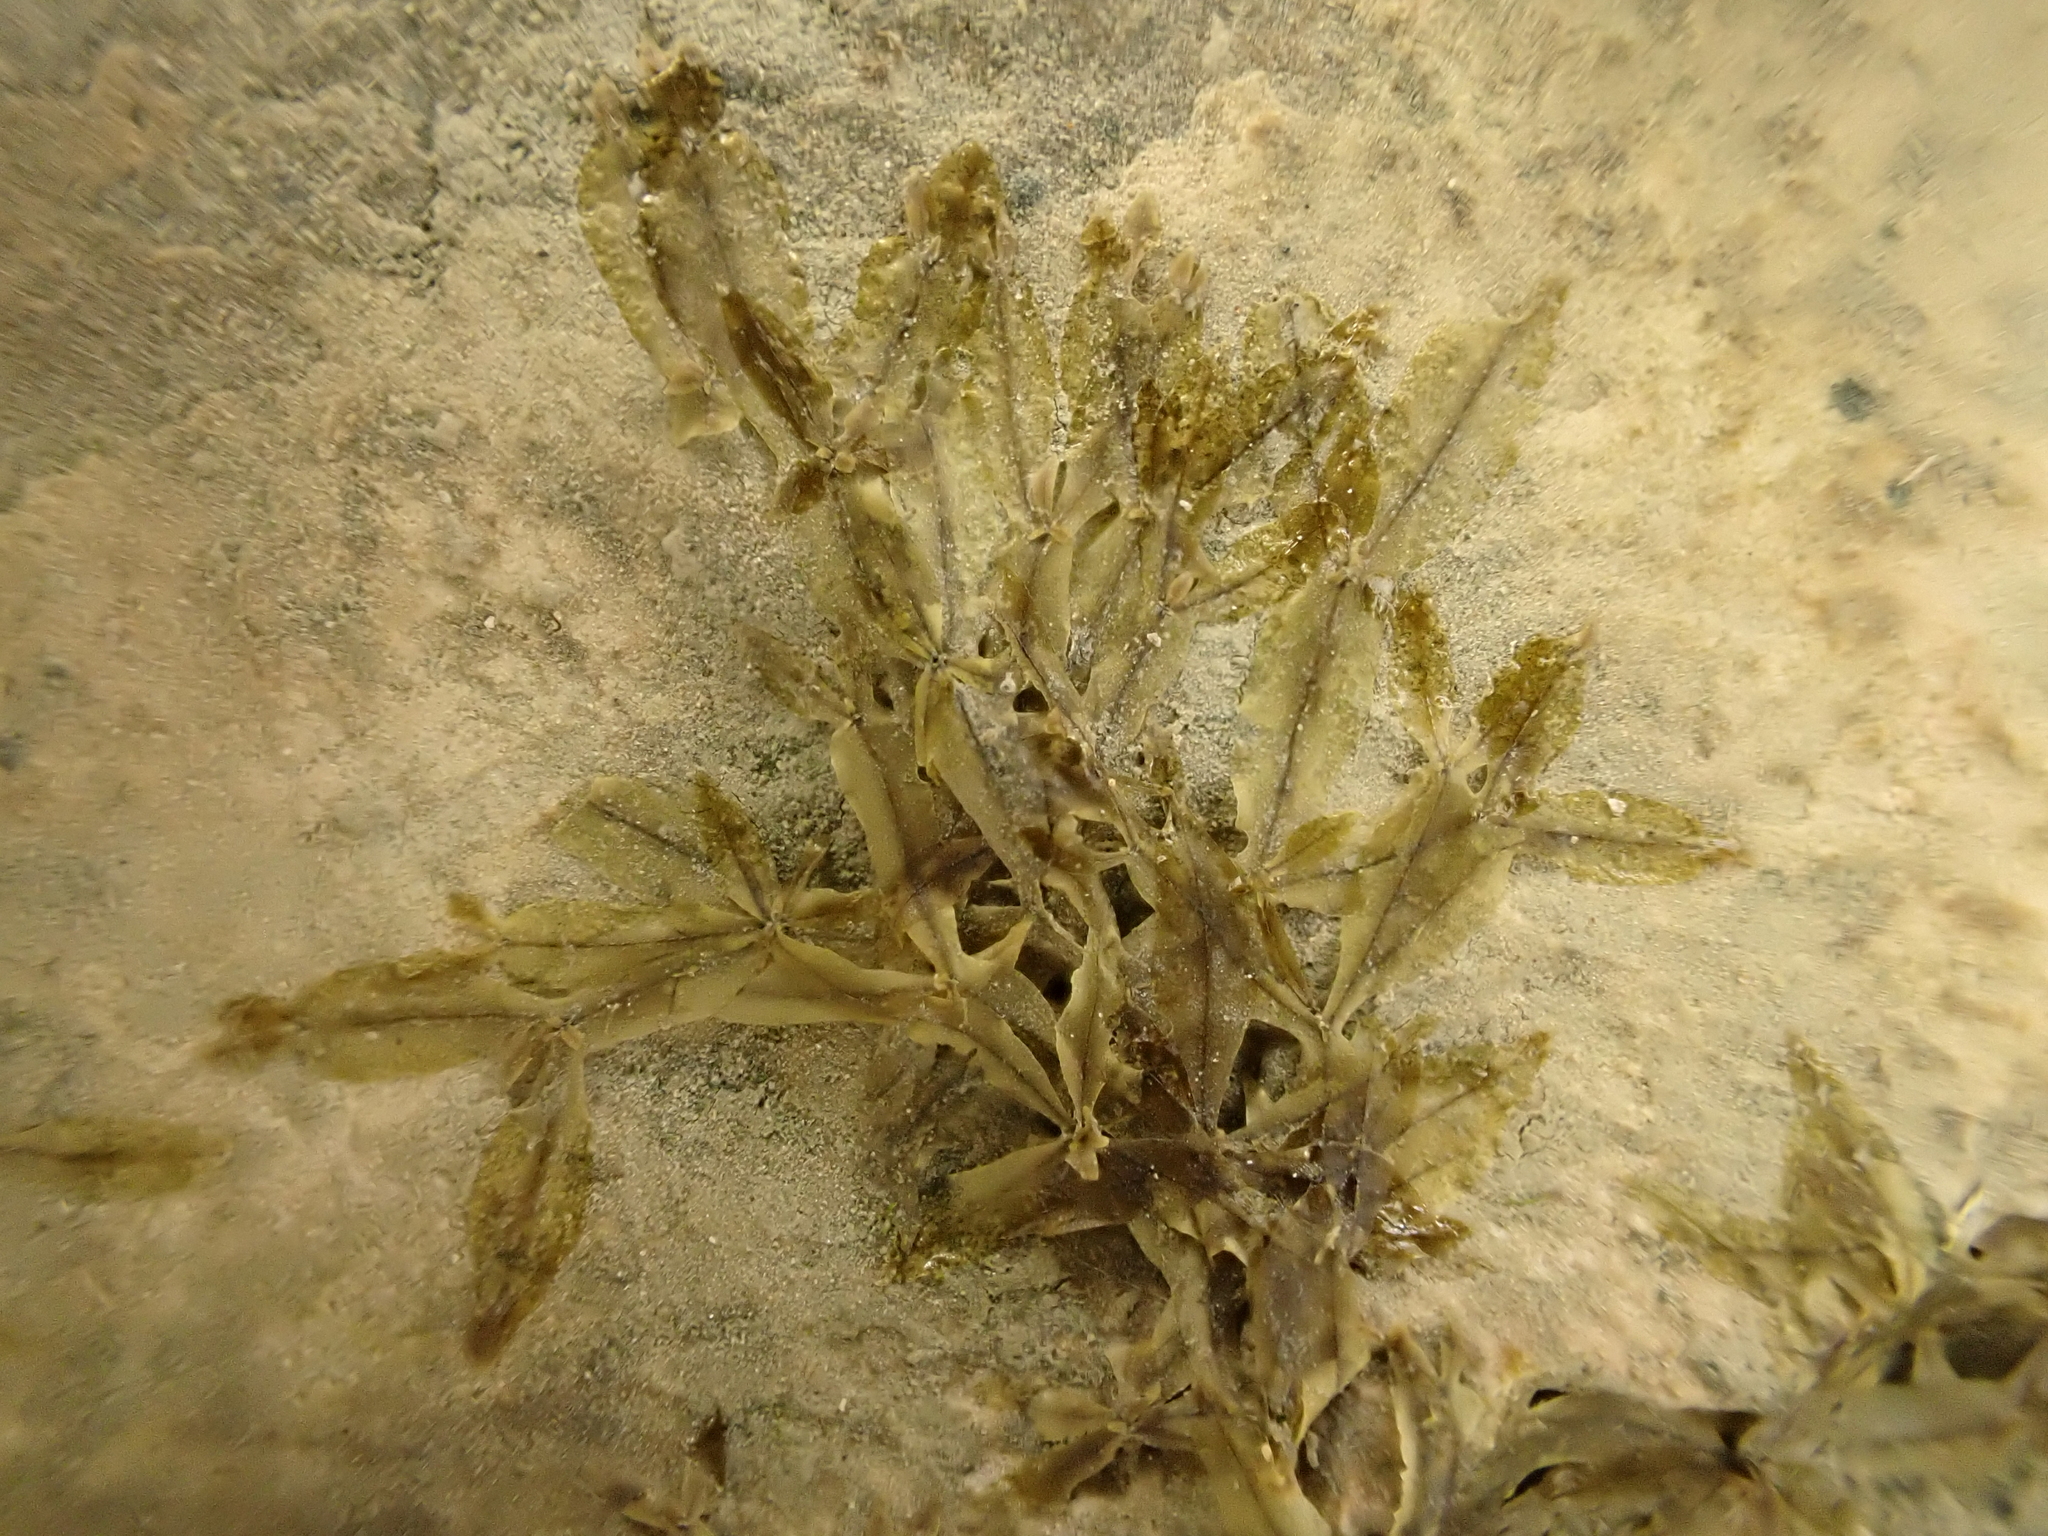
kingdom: Plantae
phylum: Rhodophyta
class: Florideophyceae
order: Ceramiales
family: Delesseriaceae
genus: Caloglossa
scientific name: Caloglossa leprieurii
